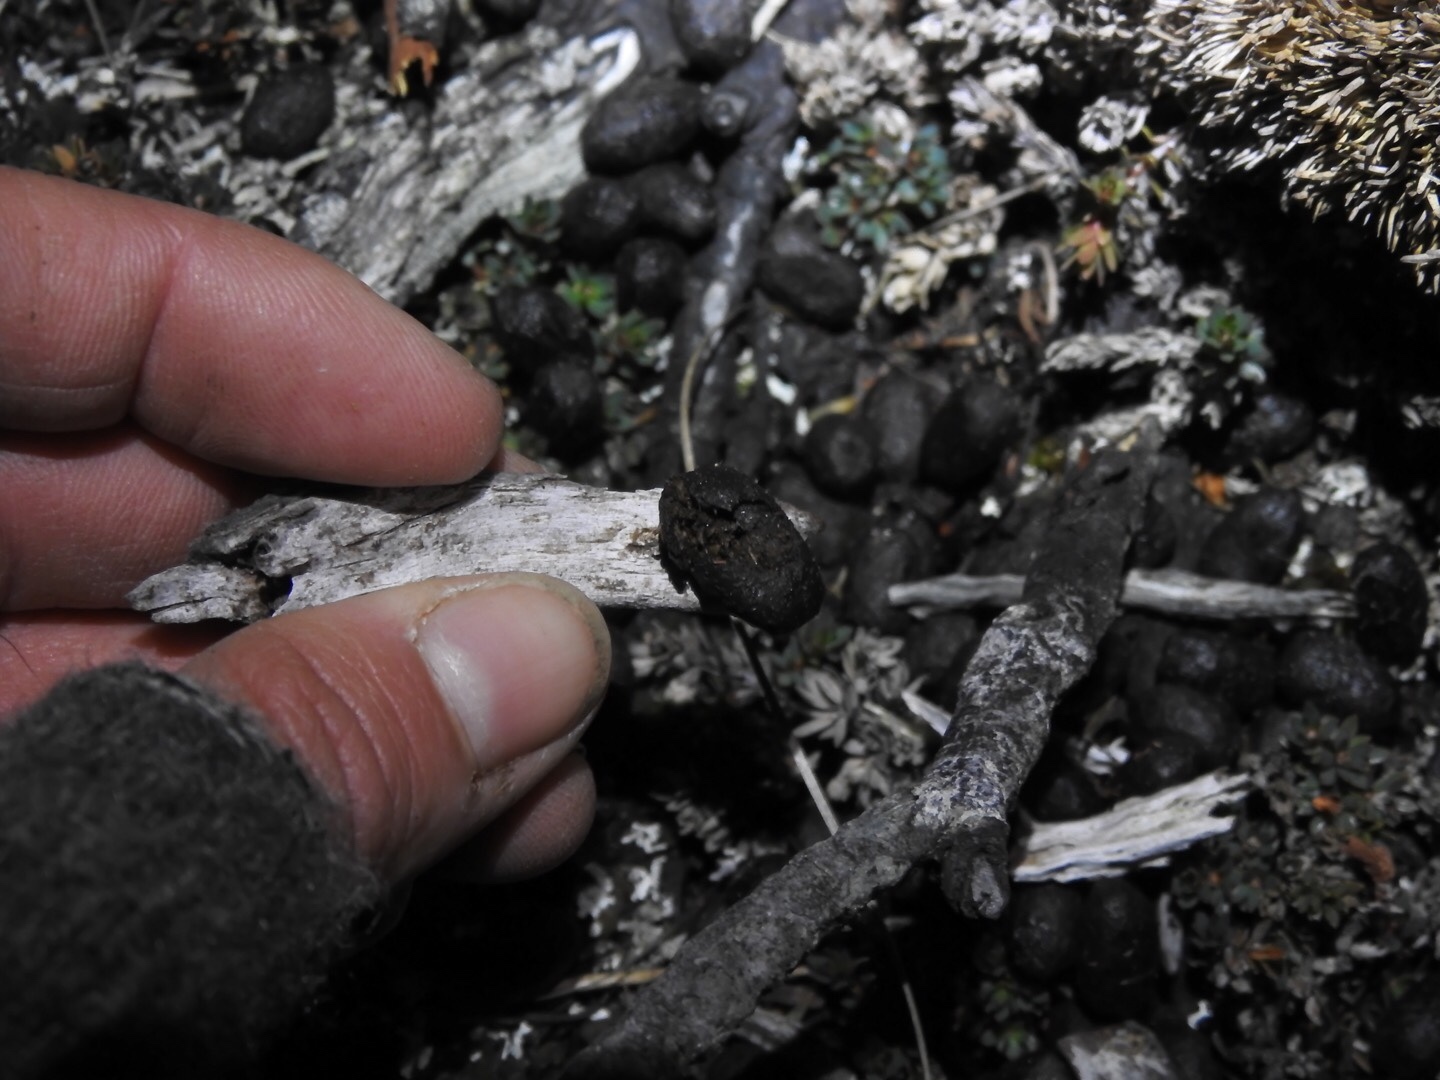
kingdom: Animalia
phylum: Chordata
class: Mammalia
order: Artiodactyla
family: Cervidae
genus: Odocoileus
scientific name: Odocoileus virginianus
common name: White-tailed deer
